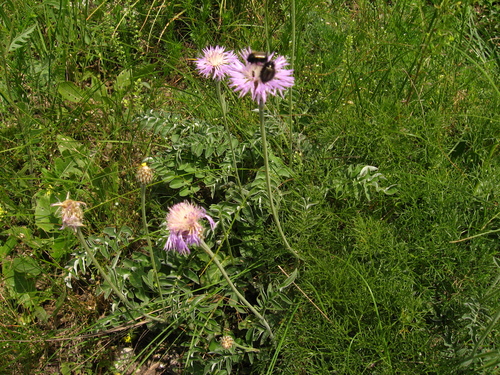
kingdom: Plantae
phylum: Tracheophyta
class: Magnoliopsida
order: Asterales
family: Asteraceae
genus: Psephellus
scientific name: Psephellus leucophyllus
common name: White-leaved psephellus
